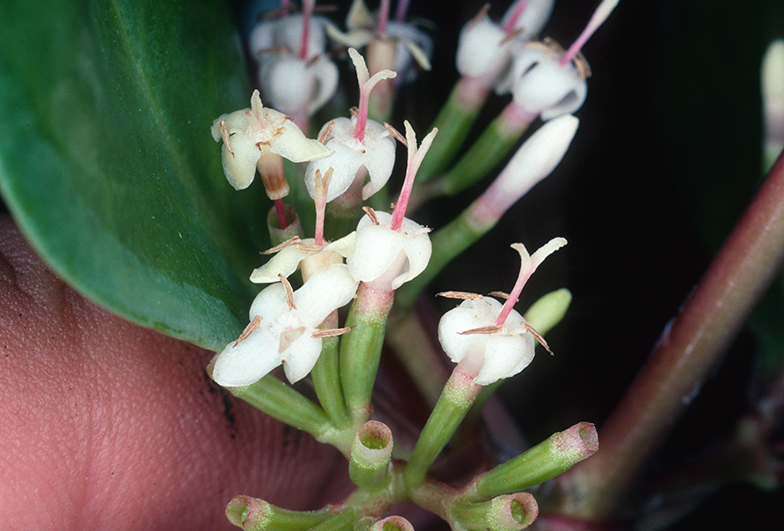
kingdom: Plantae
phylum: Tracheophyta
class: Magnoliopsida
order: Gentianales
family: Rubiaceae
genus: Scyphiphora
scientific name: Scyphiphora hydrophylacea
